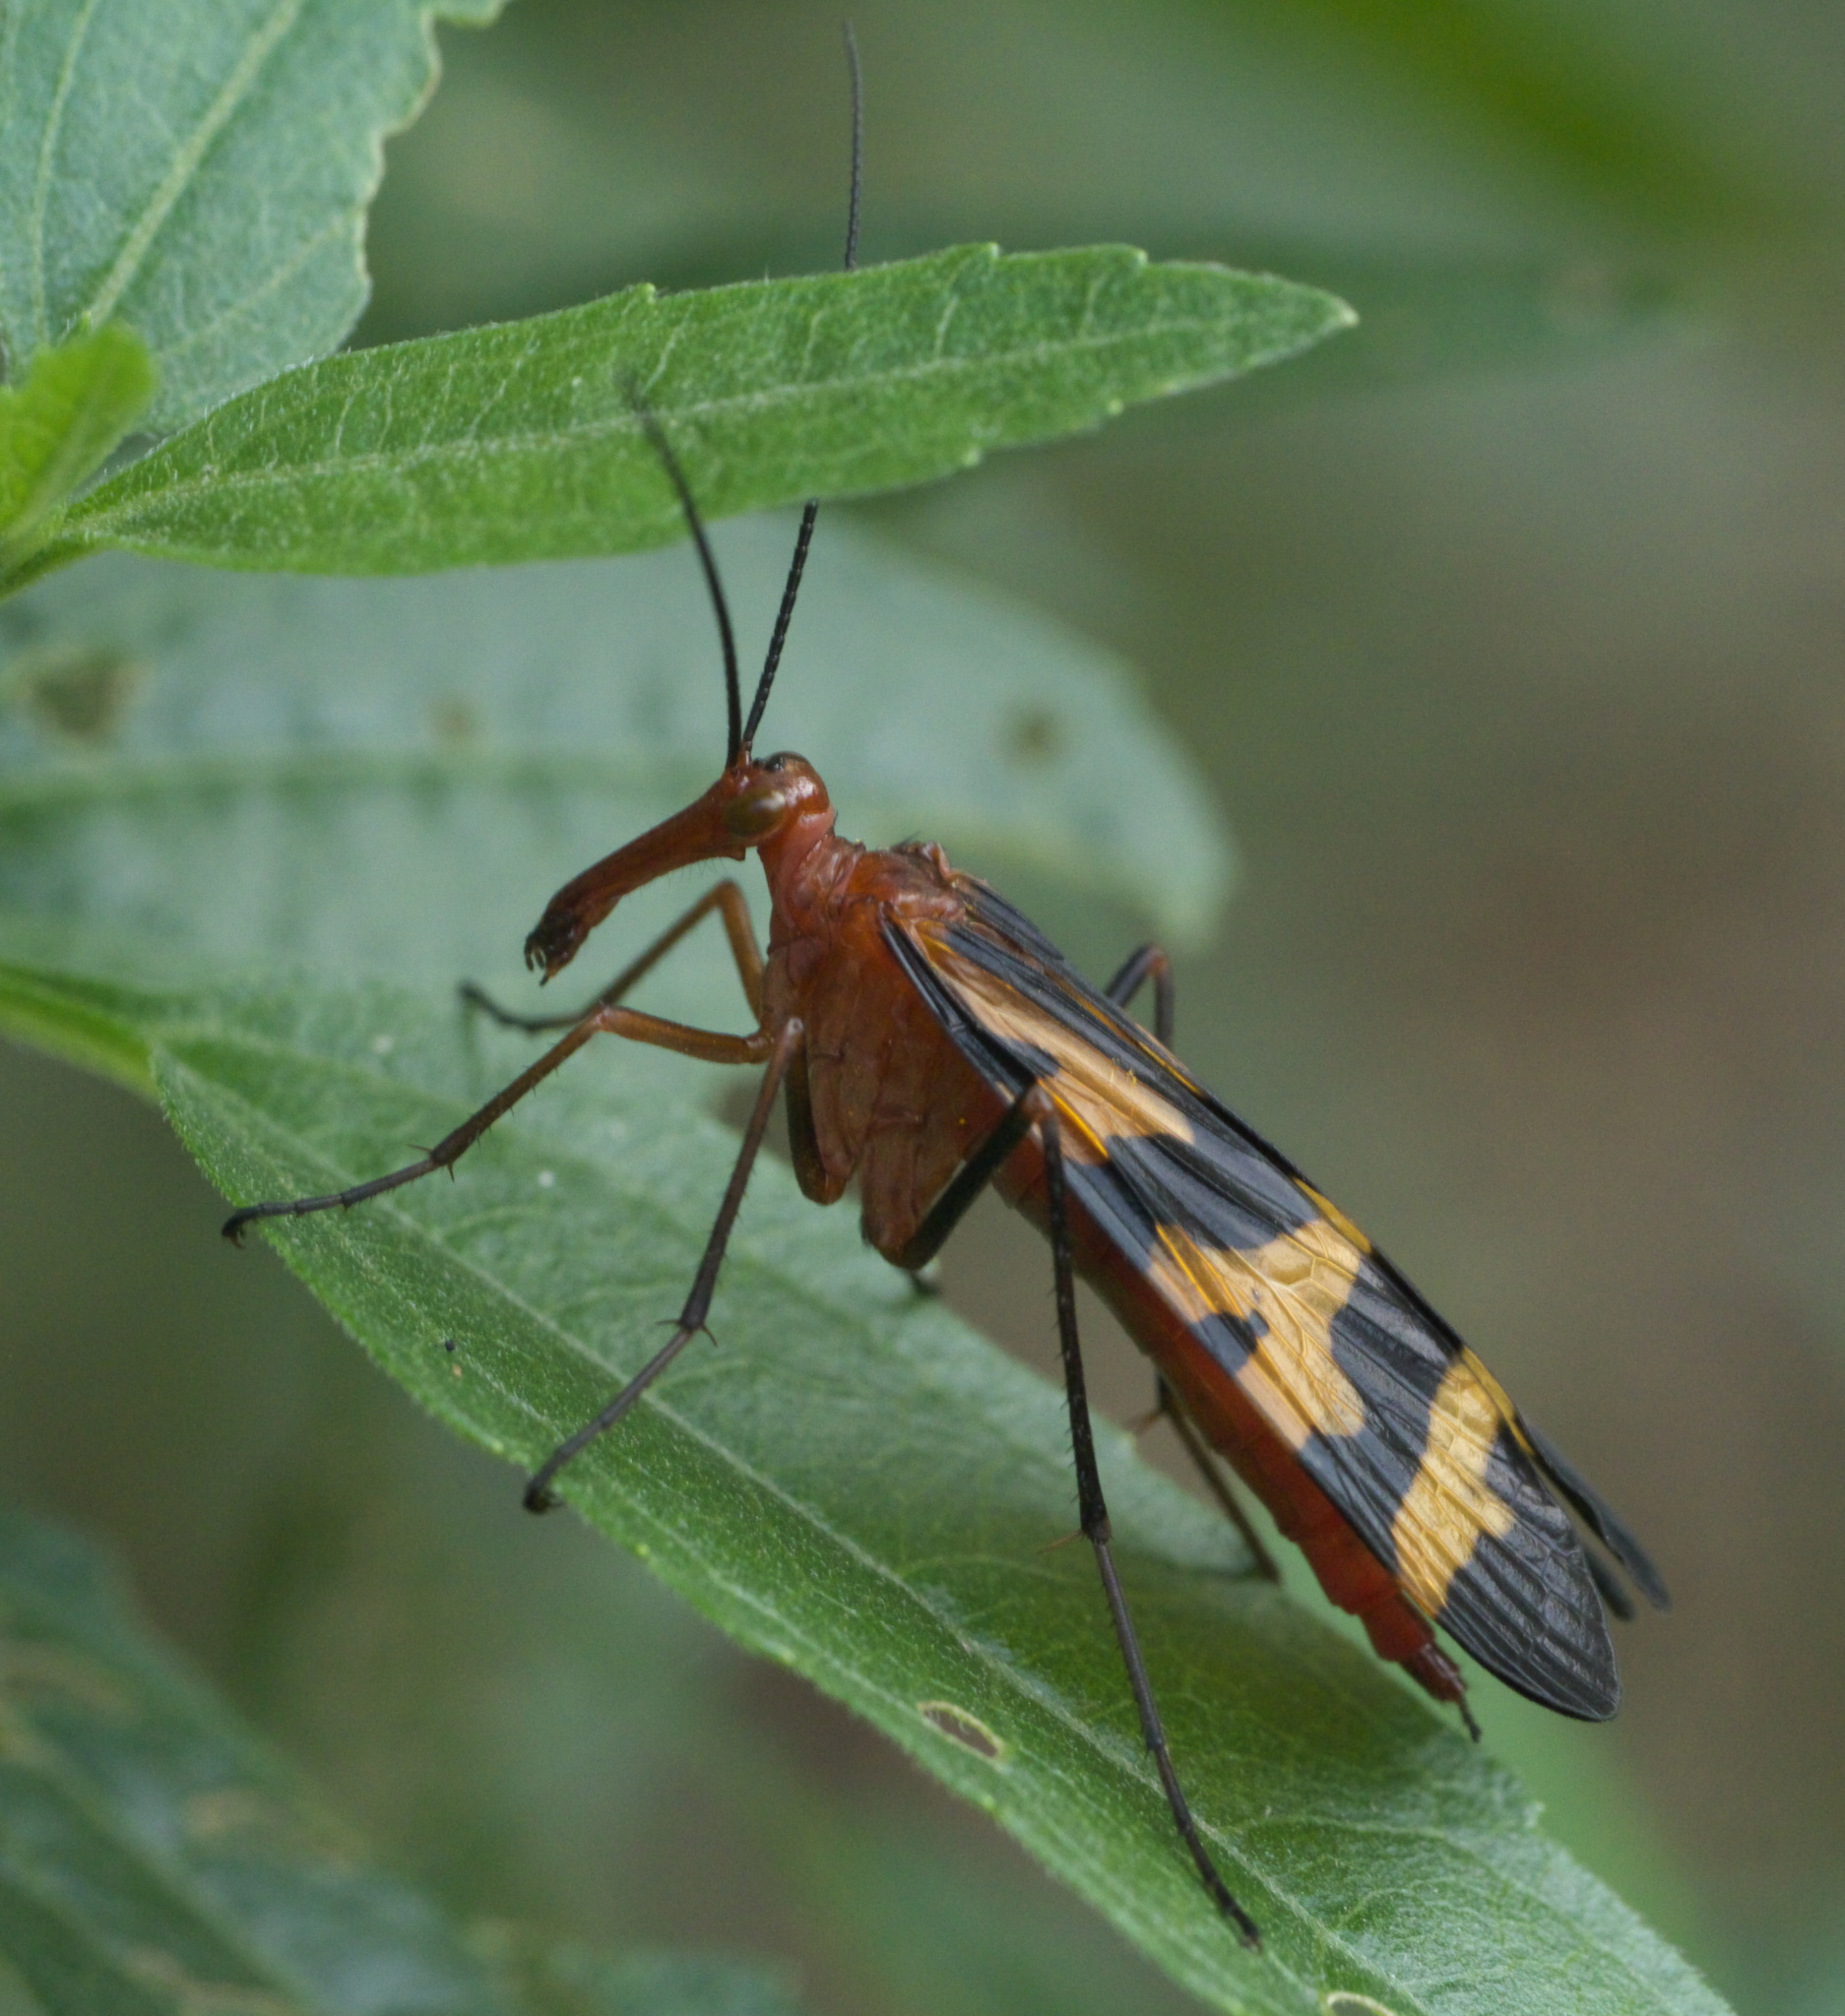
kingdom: Animalia
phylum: Arthropoda
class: Insecta
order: Mecoptera
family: Panorpidae
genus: Panorpa
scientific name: Panorpa nuptialis
